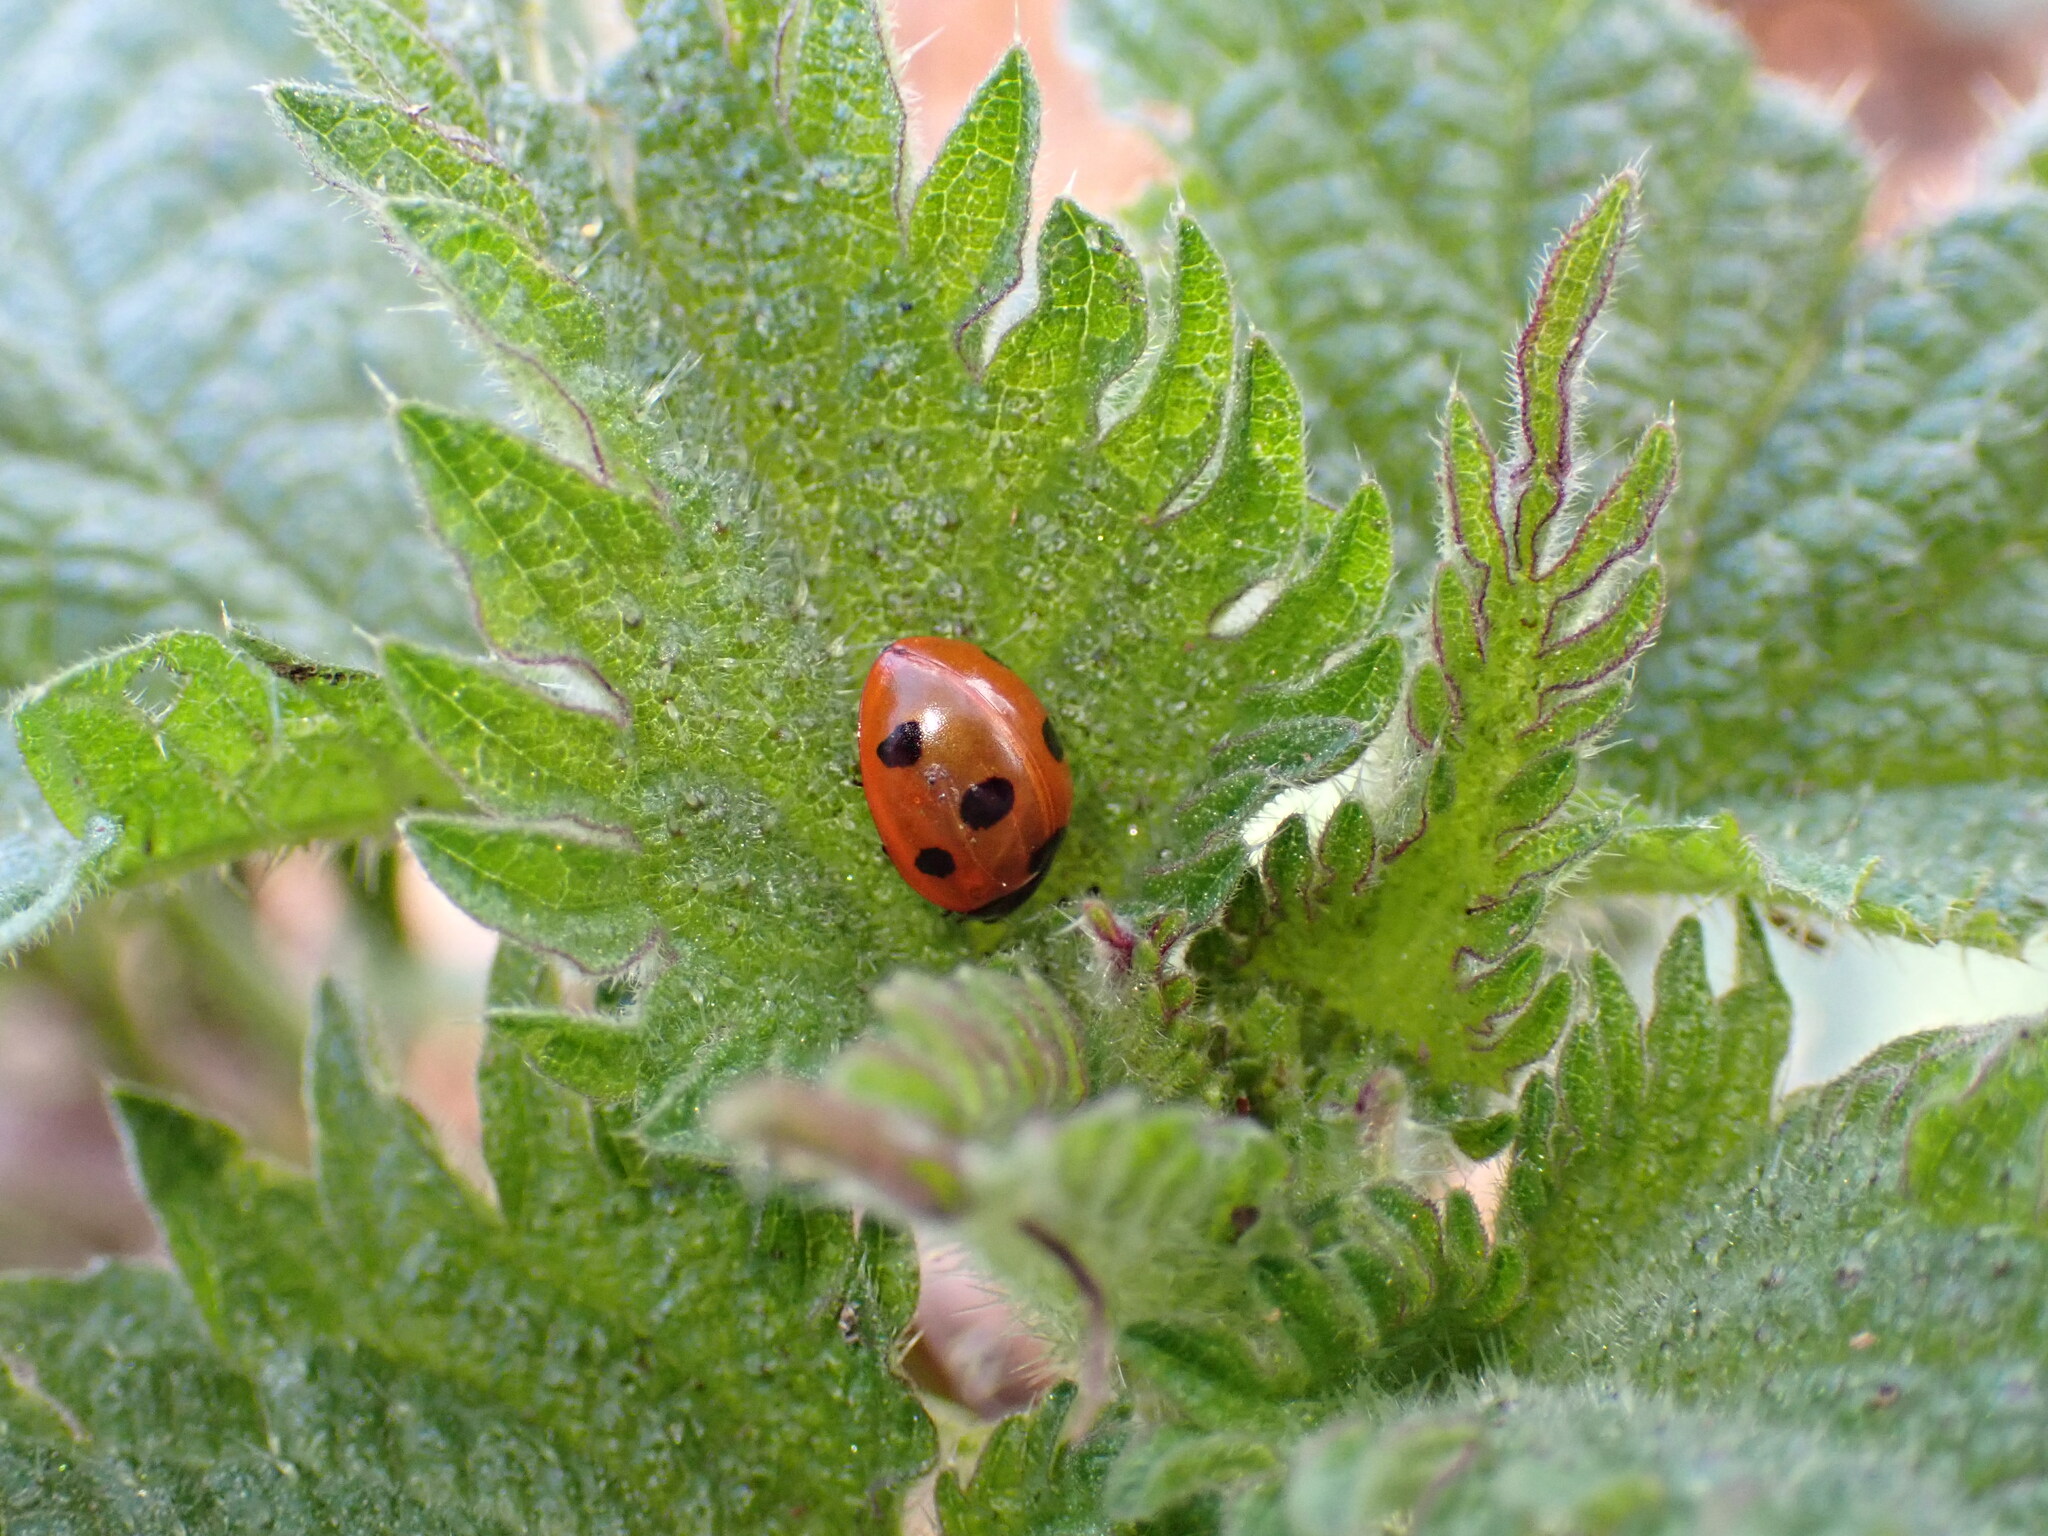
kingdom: Animalia
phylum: Arthropoda
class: Insecta
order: Coleoptera
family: Coccinellidae
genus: Coccinella
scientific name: Coccinella septempunctata
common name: Sevenspotted lady beetle
